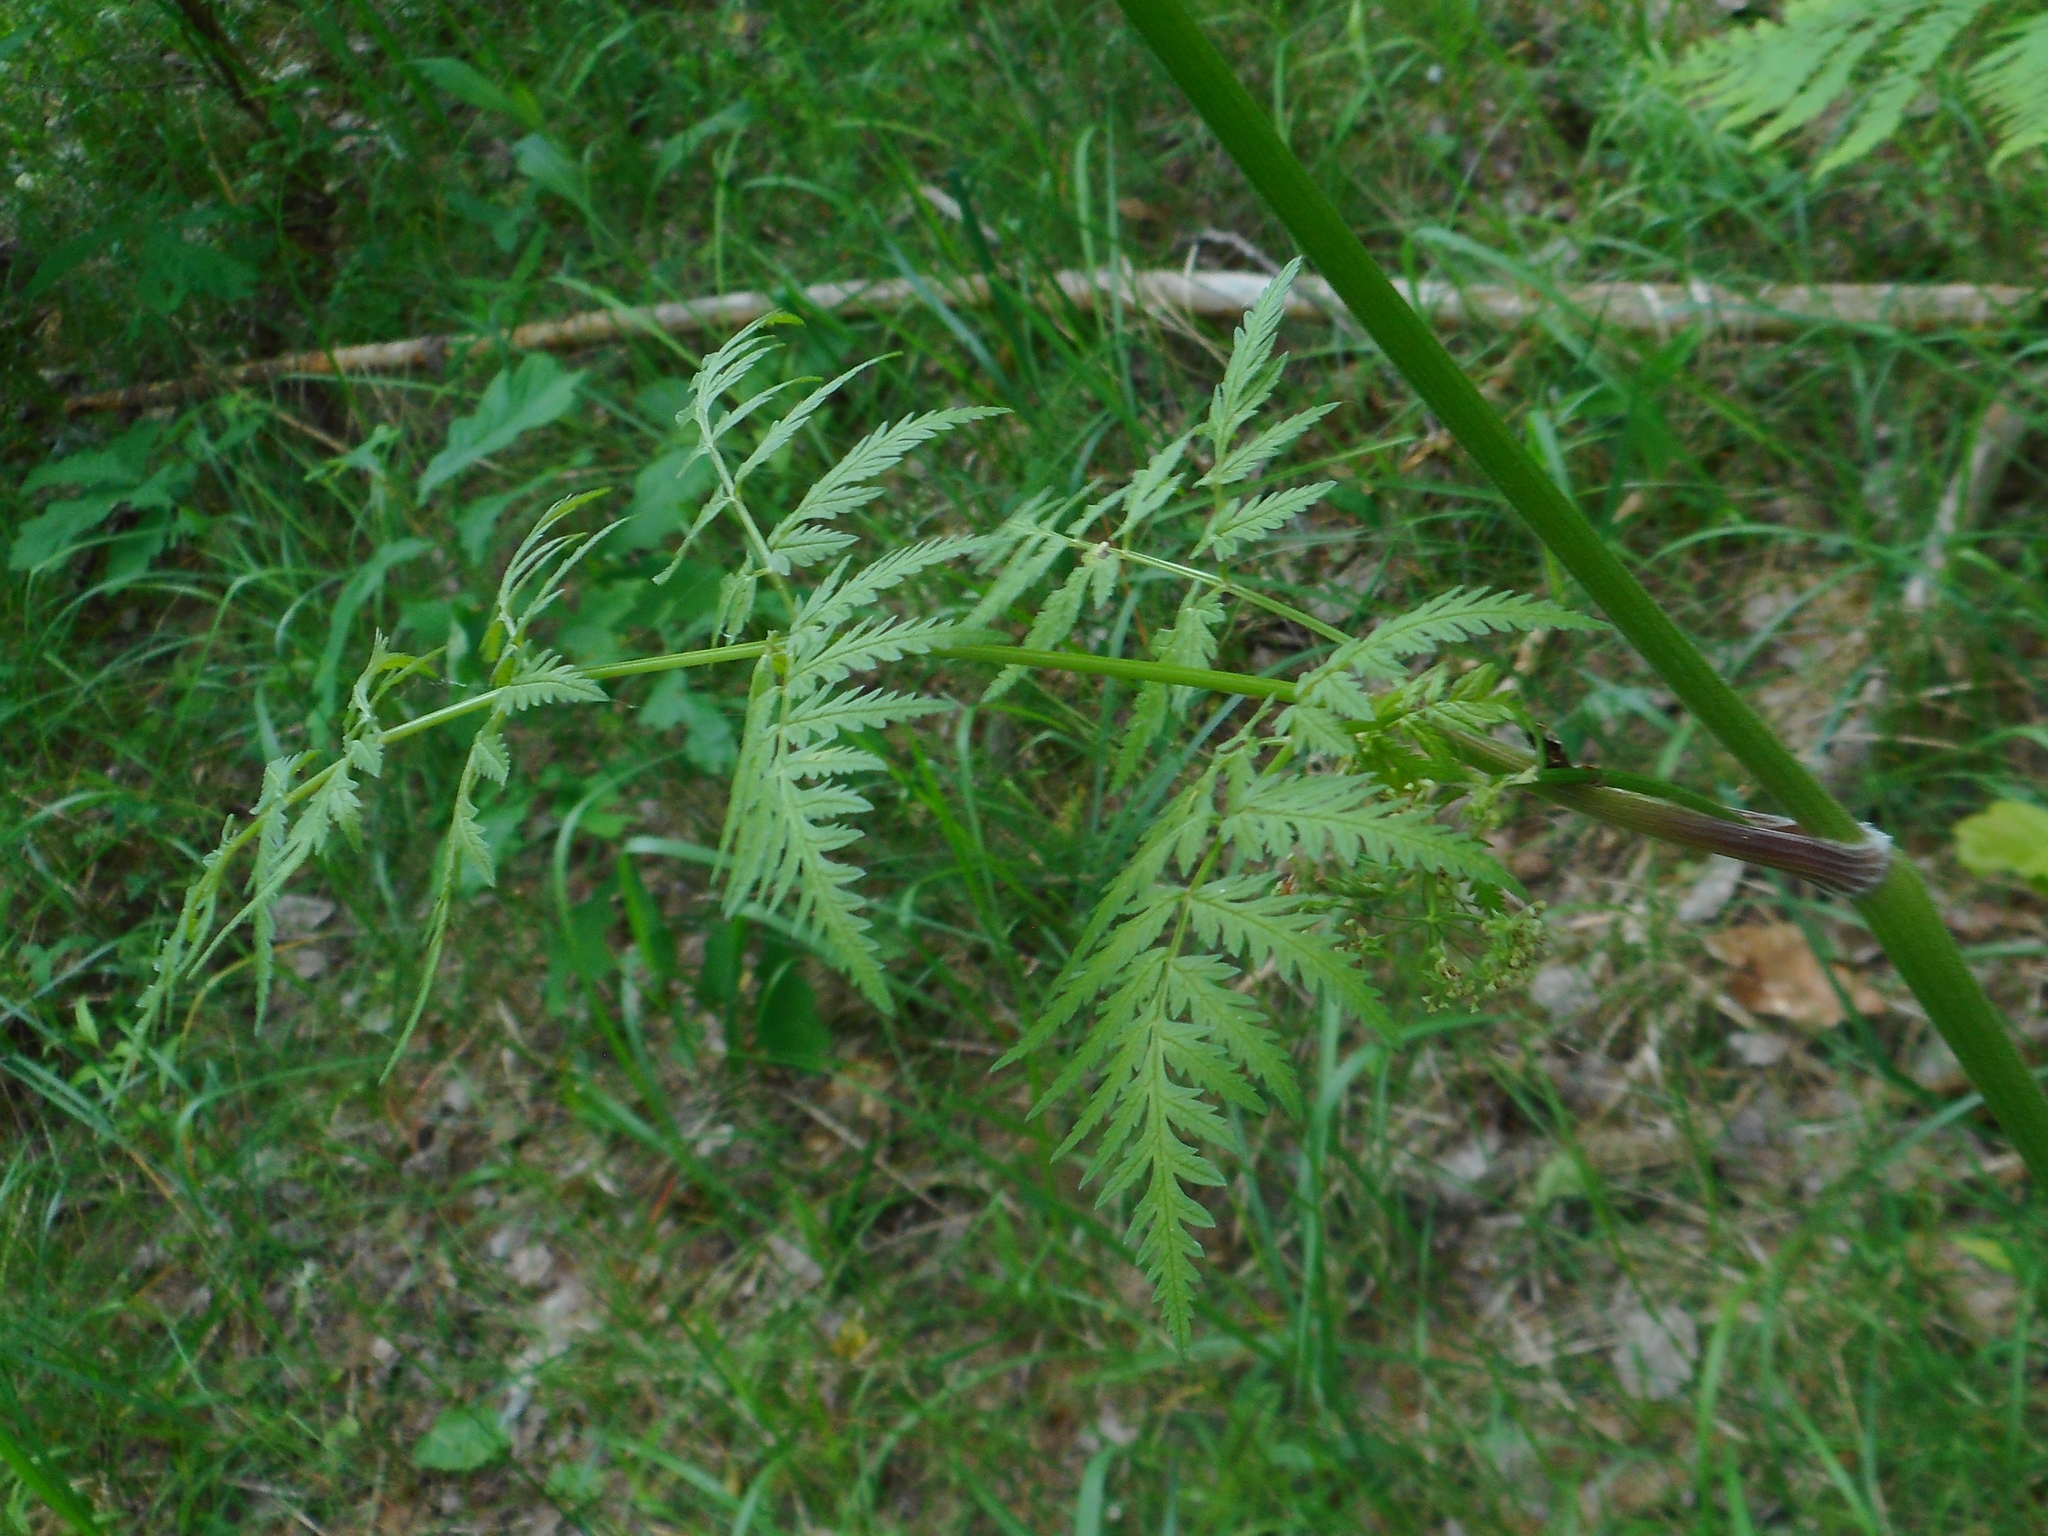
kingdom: Plantae
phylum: Tracheophyta
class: Magnoliopsida
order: Apiales
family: Apiaceae
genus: Anthriscus
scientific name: Anthriscus sylvestris
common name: Cow parsley
